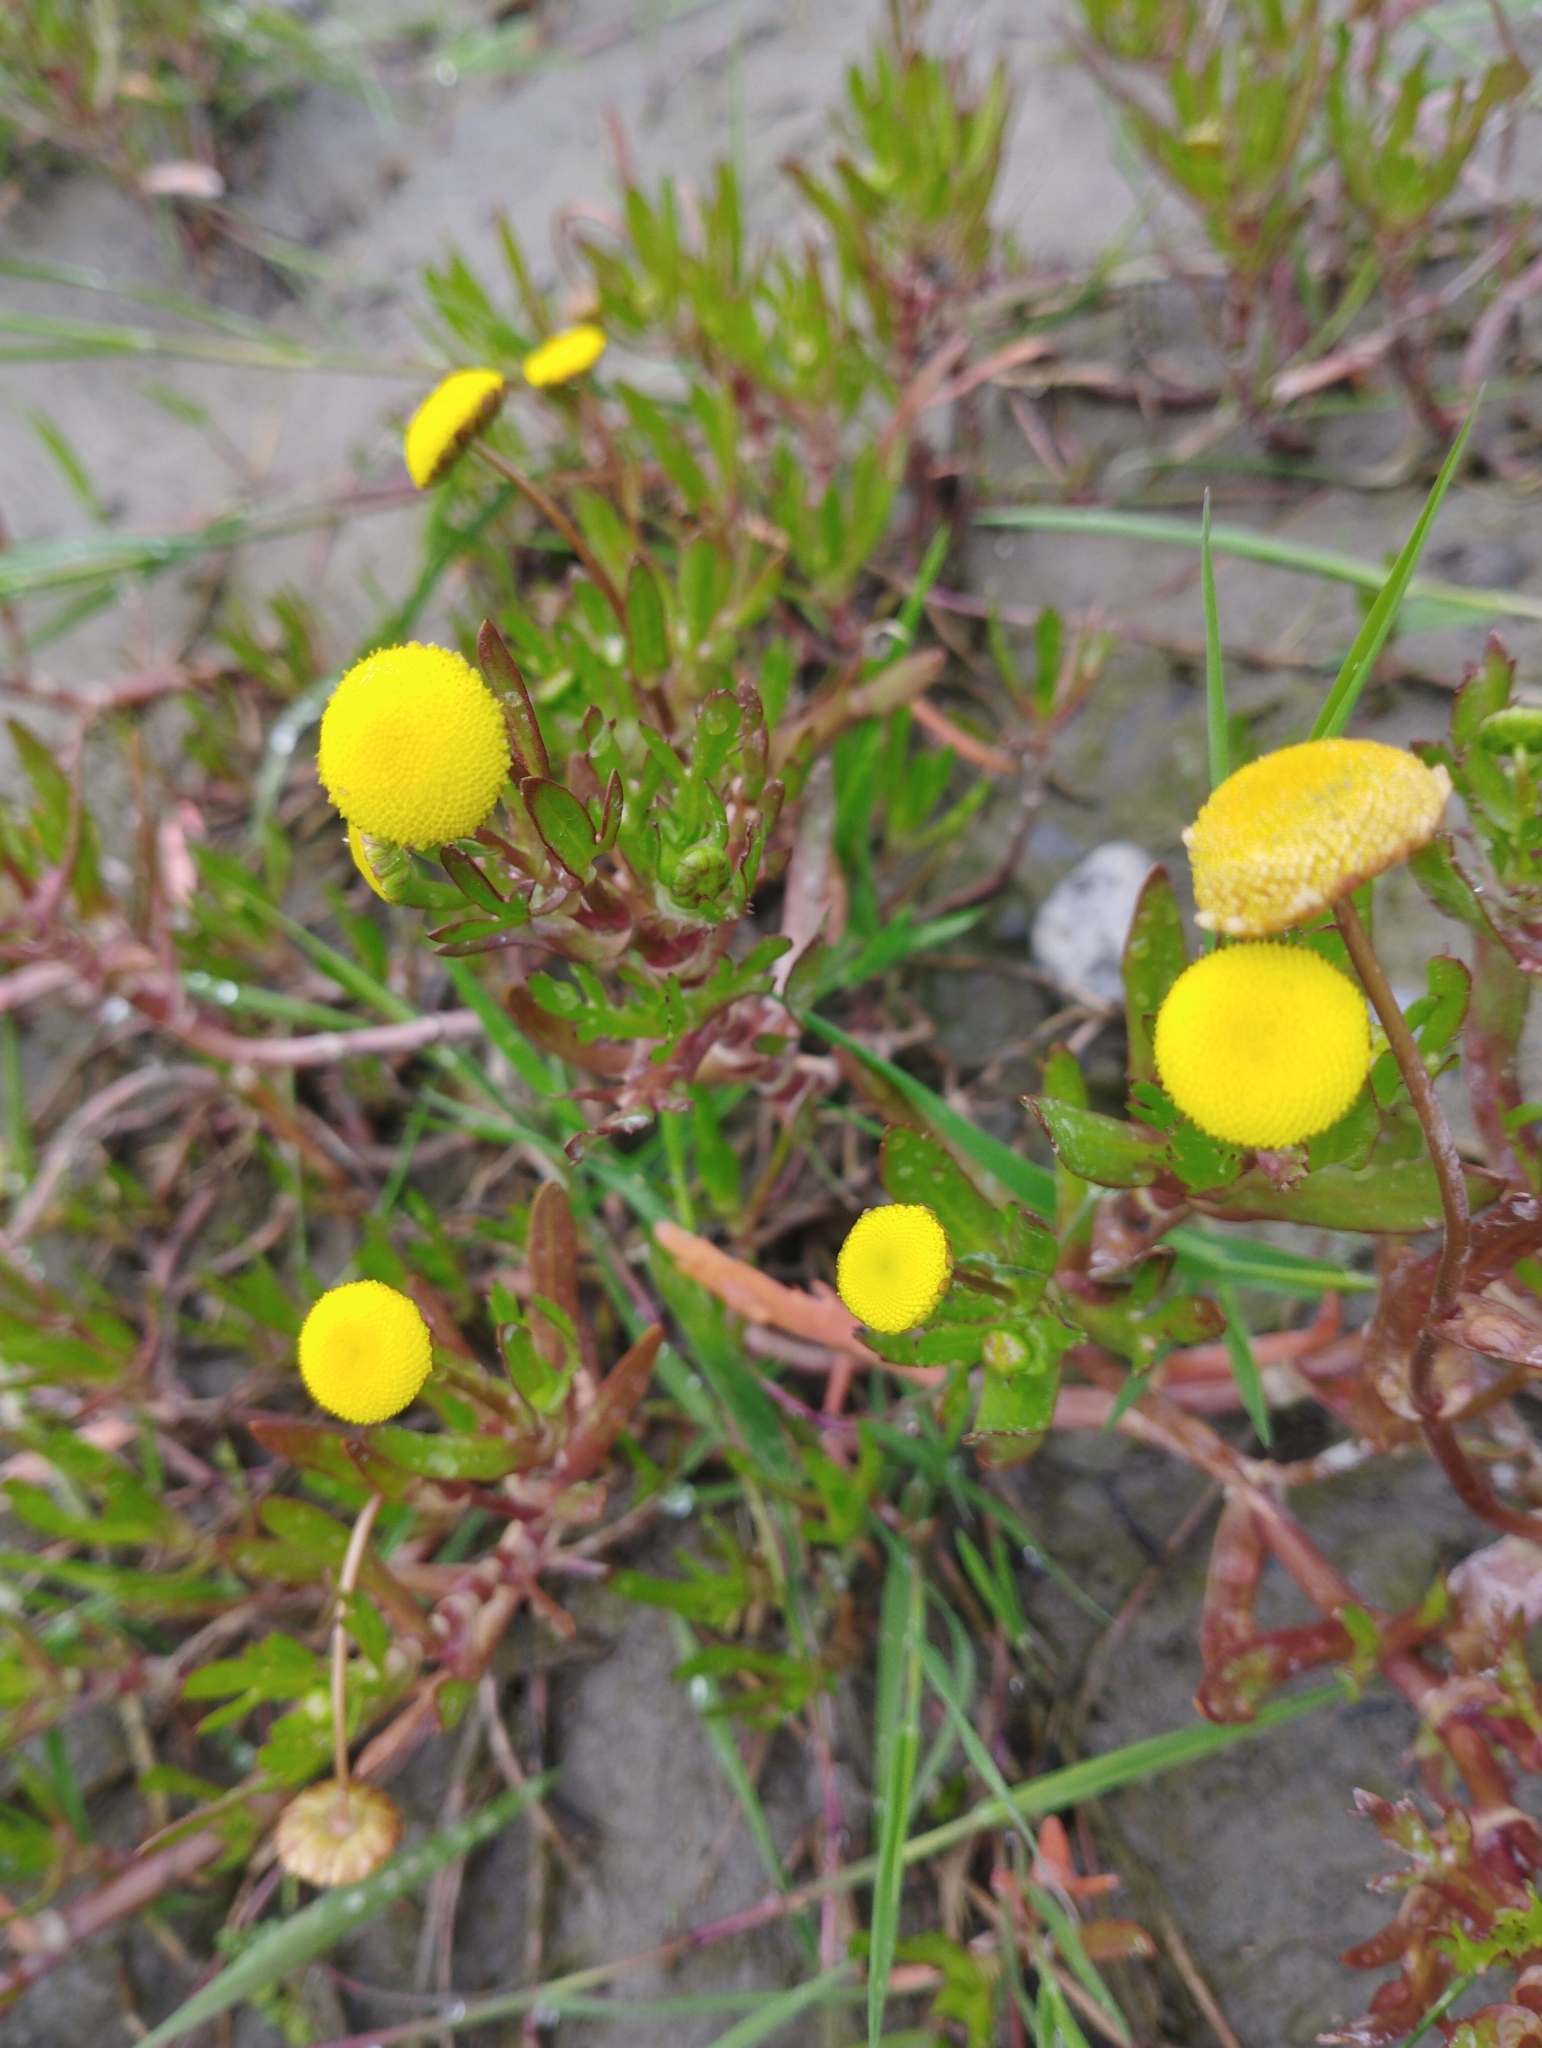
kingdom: Plantae
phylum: Tracheophyta
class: Magnoliopsida
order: Asterales
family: Asteraceae
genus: Cotula
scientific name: Cotula coronopifolia
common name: Buttonweed
